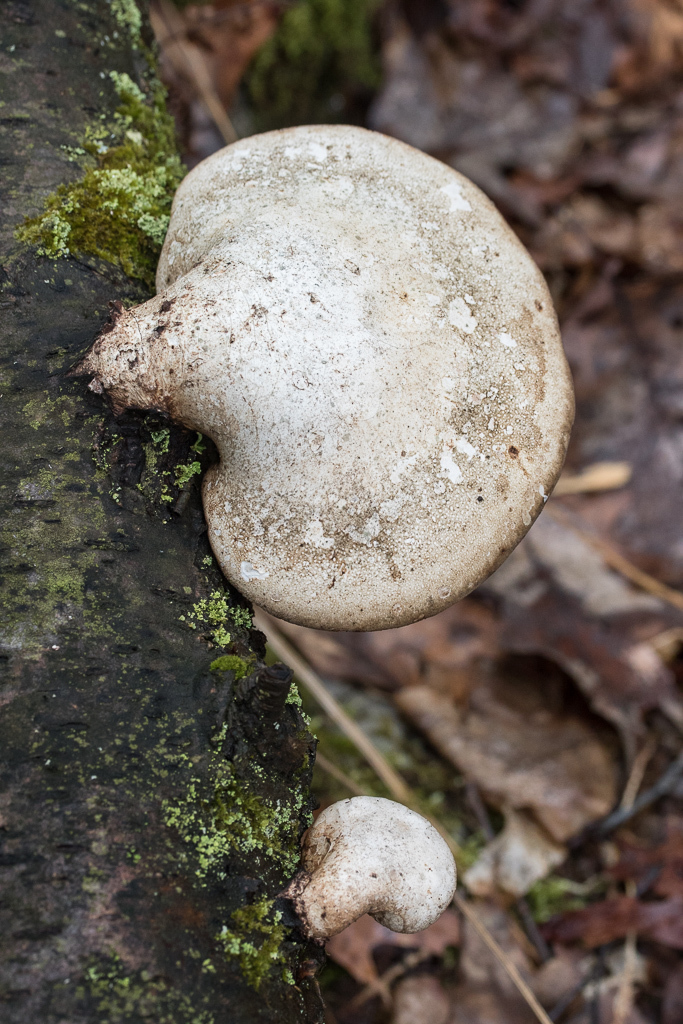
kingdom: Fungi
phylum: Basidiomycota
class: Agaricomycetes
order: Polyporales
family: Fomitopsidaceae
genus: Fomitopsis
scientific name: Fomitopsis betulina
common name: Birch polypore
